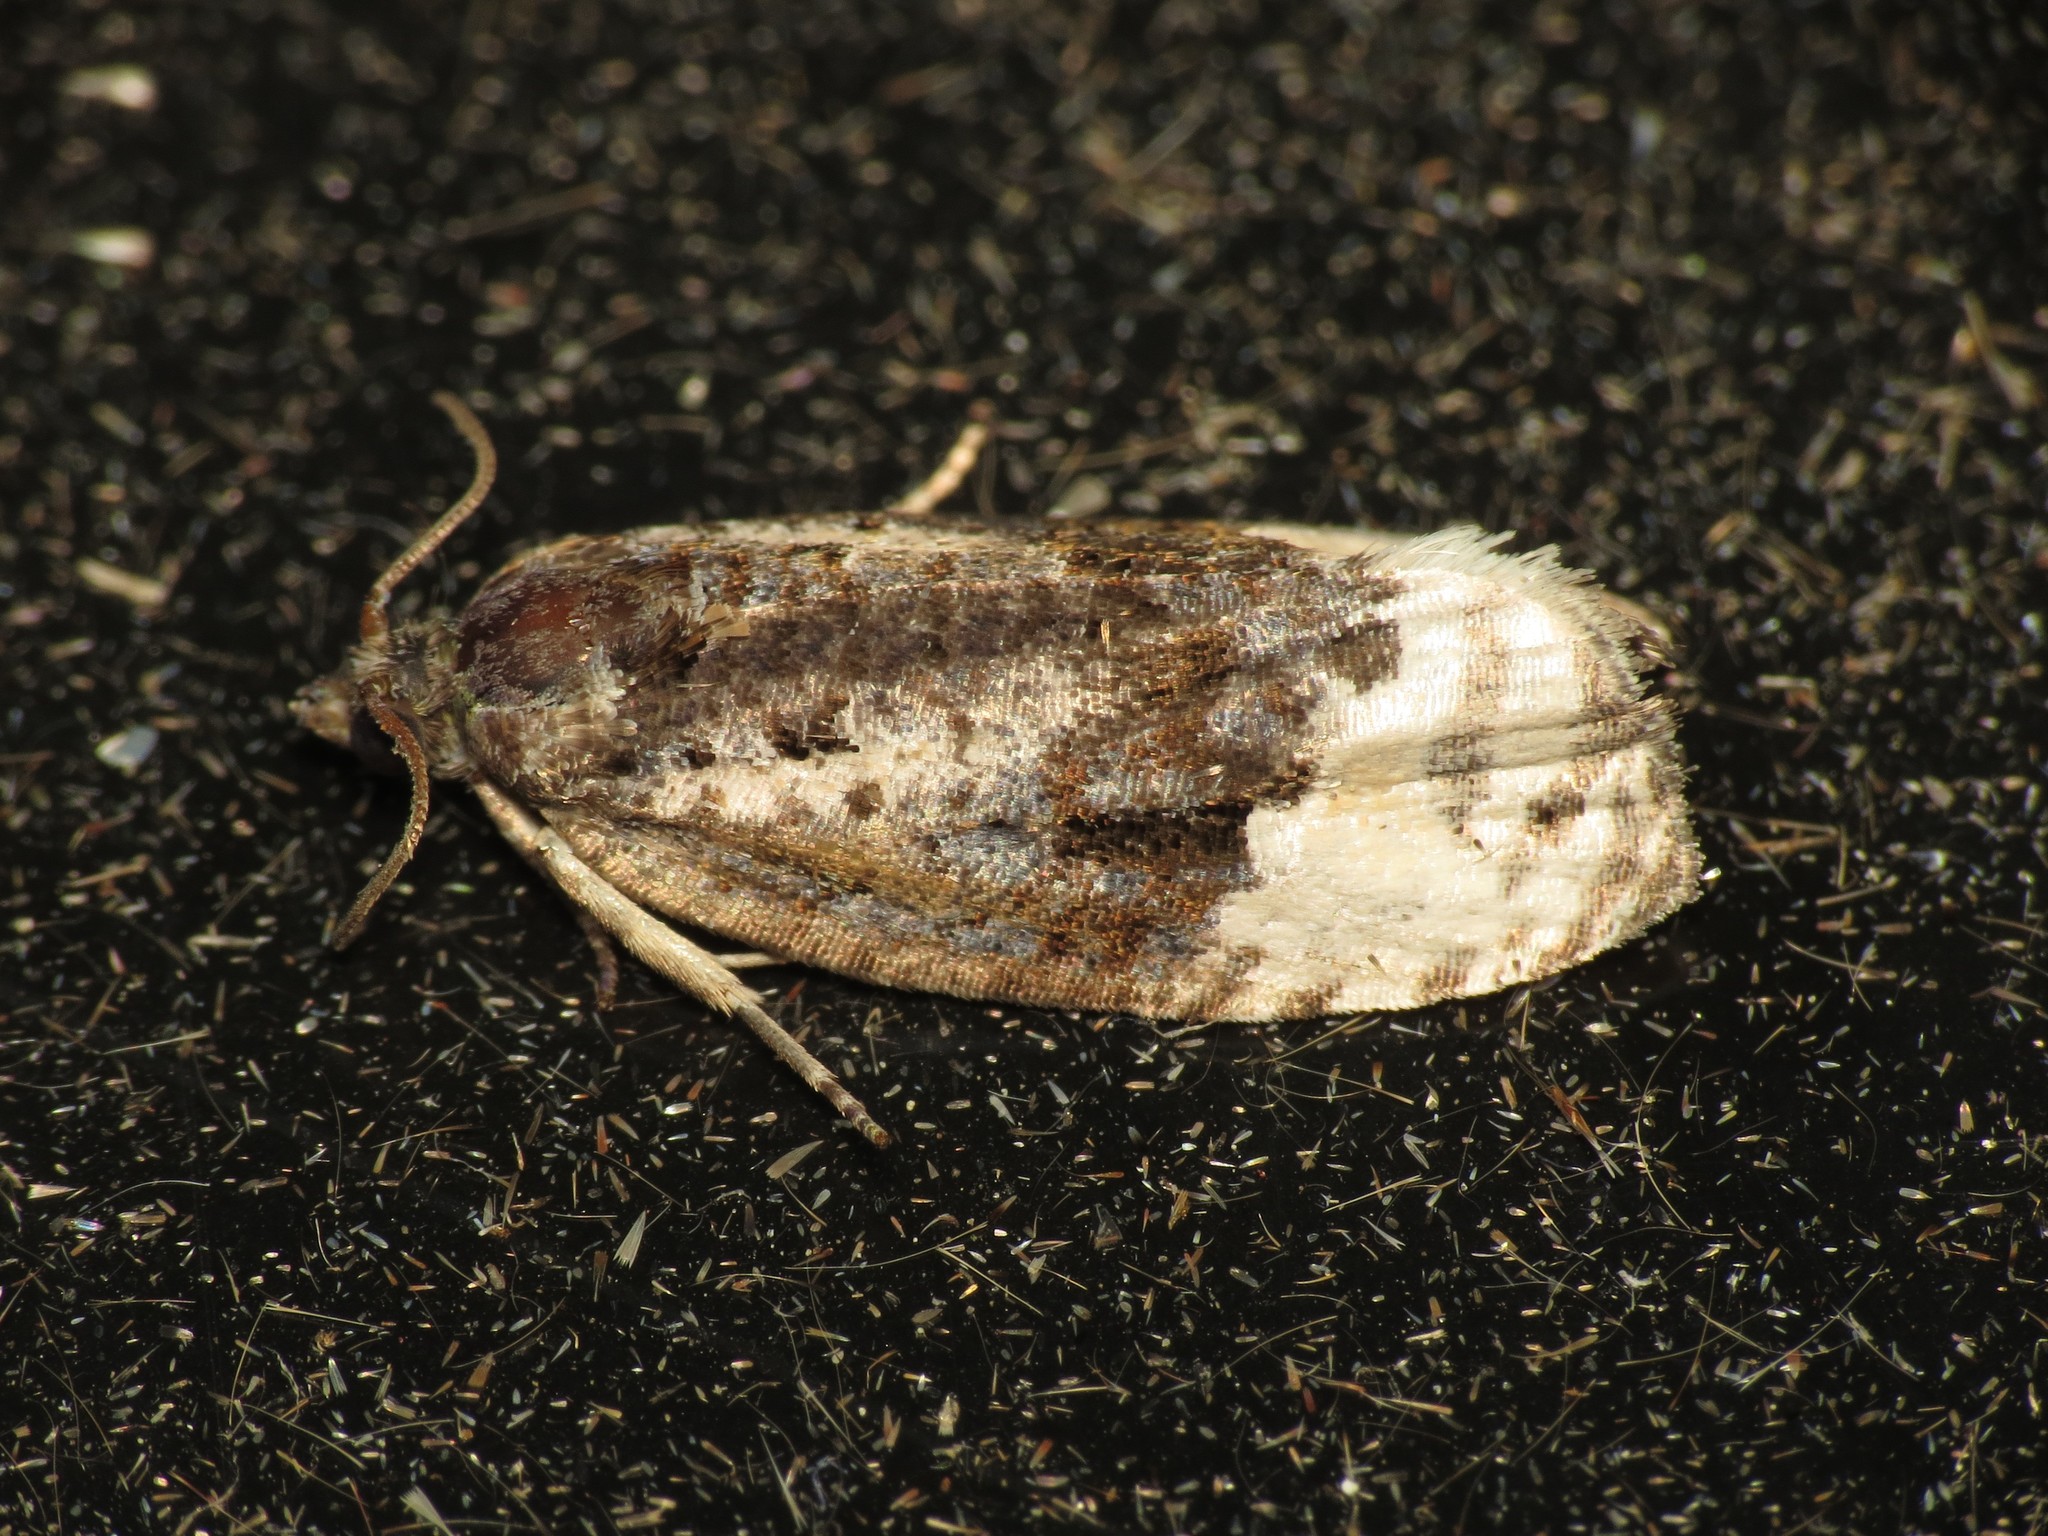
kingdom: Animalia
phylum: Arthropoda
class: Insecta
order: Lepidoptera
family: Tortricidae
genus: Apotomis
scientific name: Apotomis betuletana
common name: Birch marble
